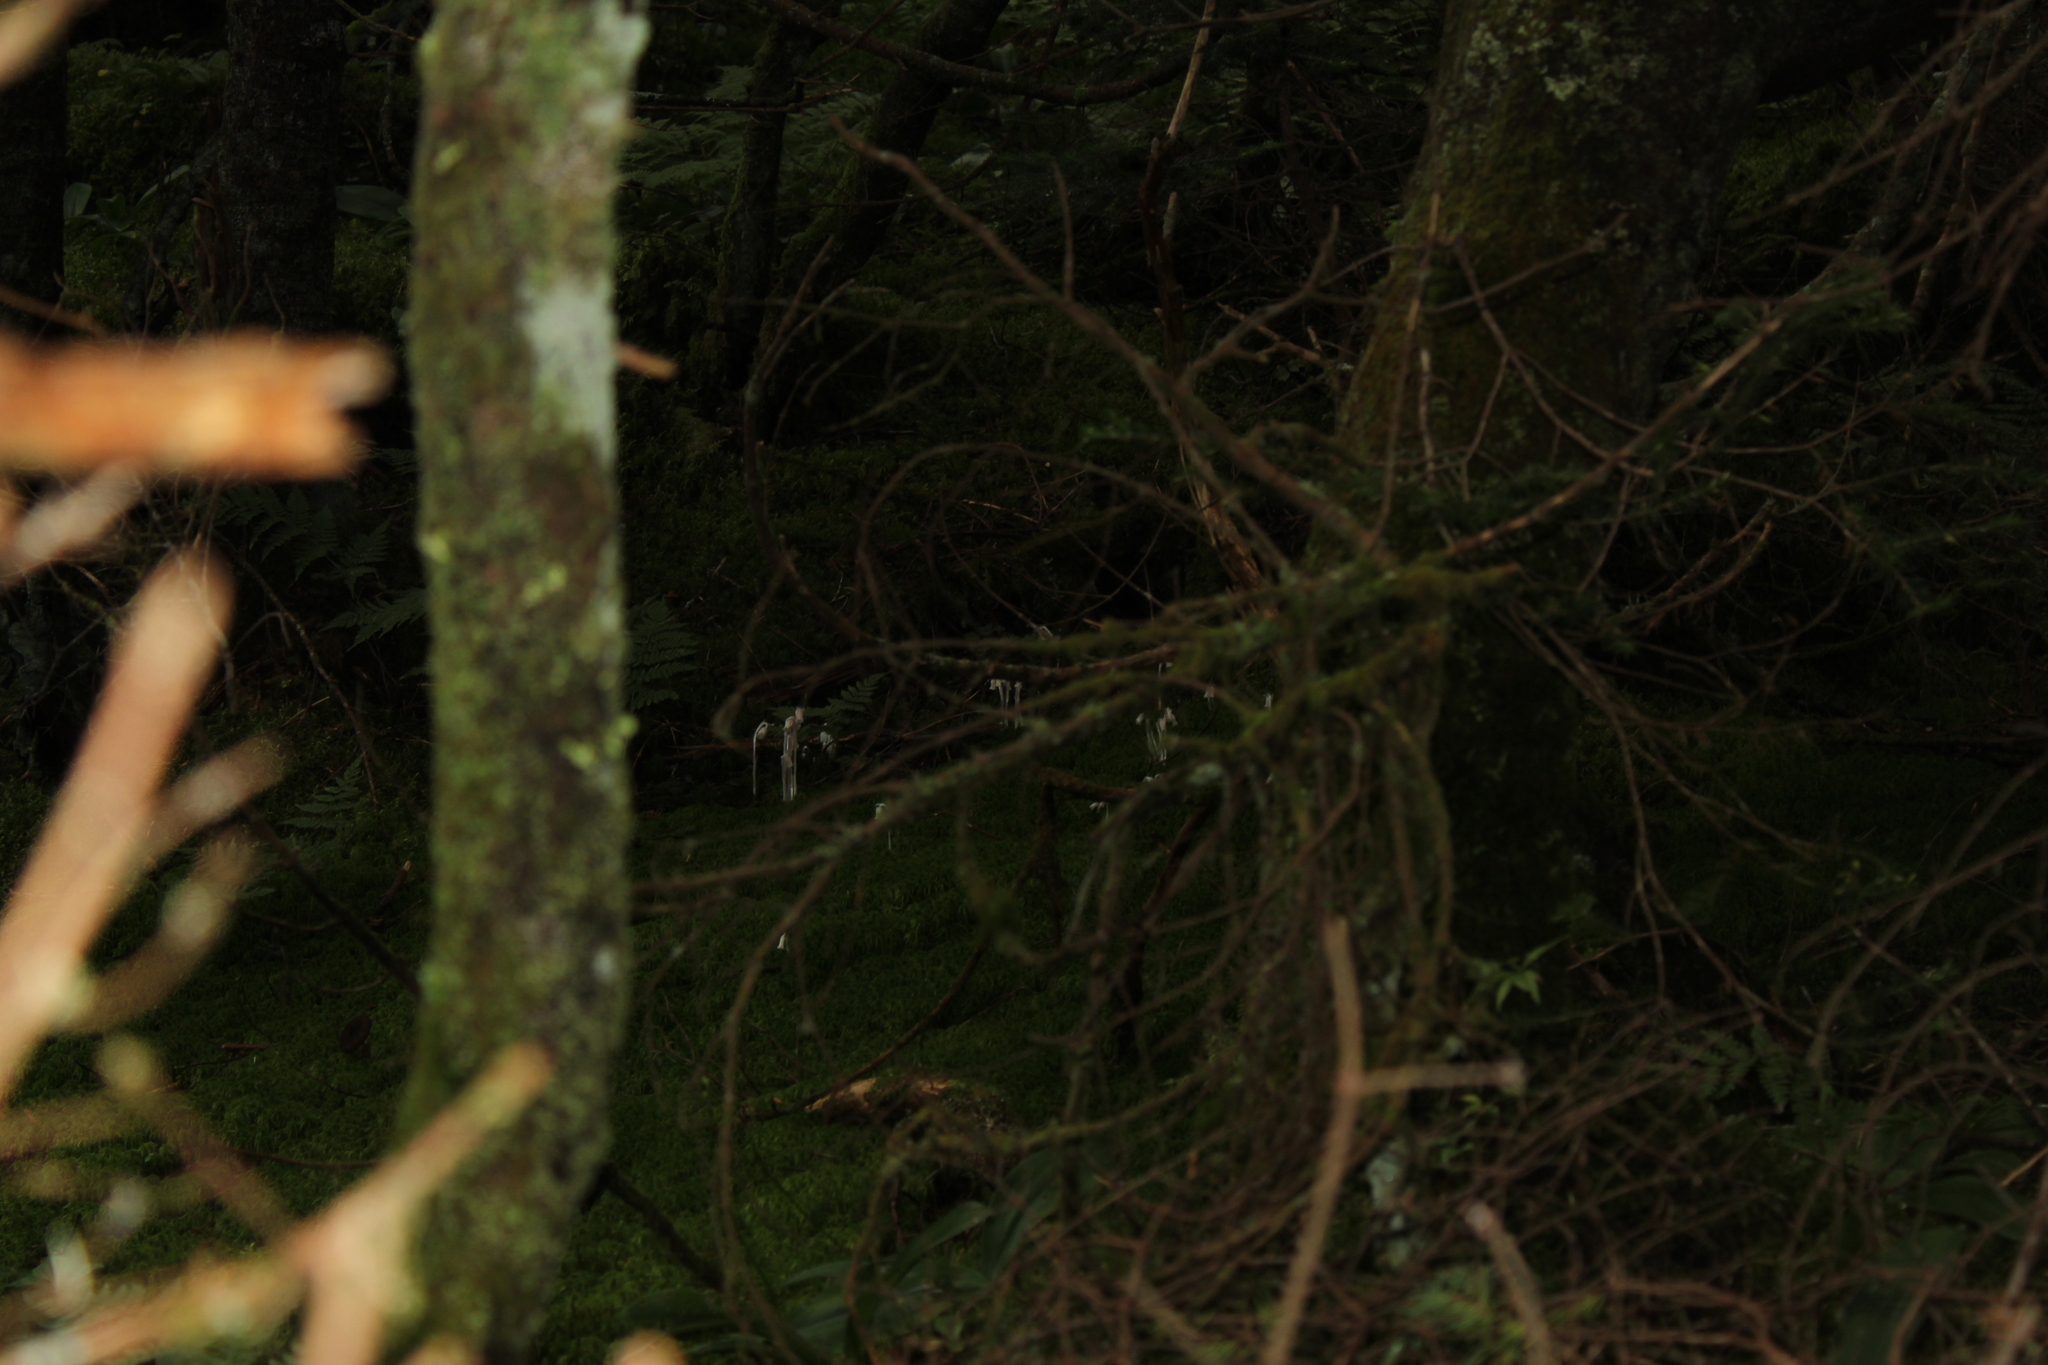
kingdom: Plantae
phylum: Tracheophyta
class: Magnoliopsida
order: Ericales
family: Ericaceae
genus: Monotropa
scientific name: Monotropa uniflora
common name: Convulsion root
